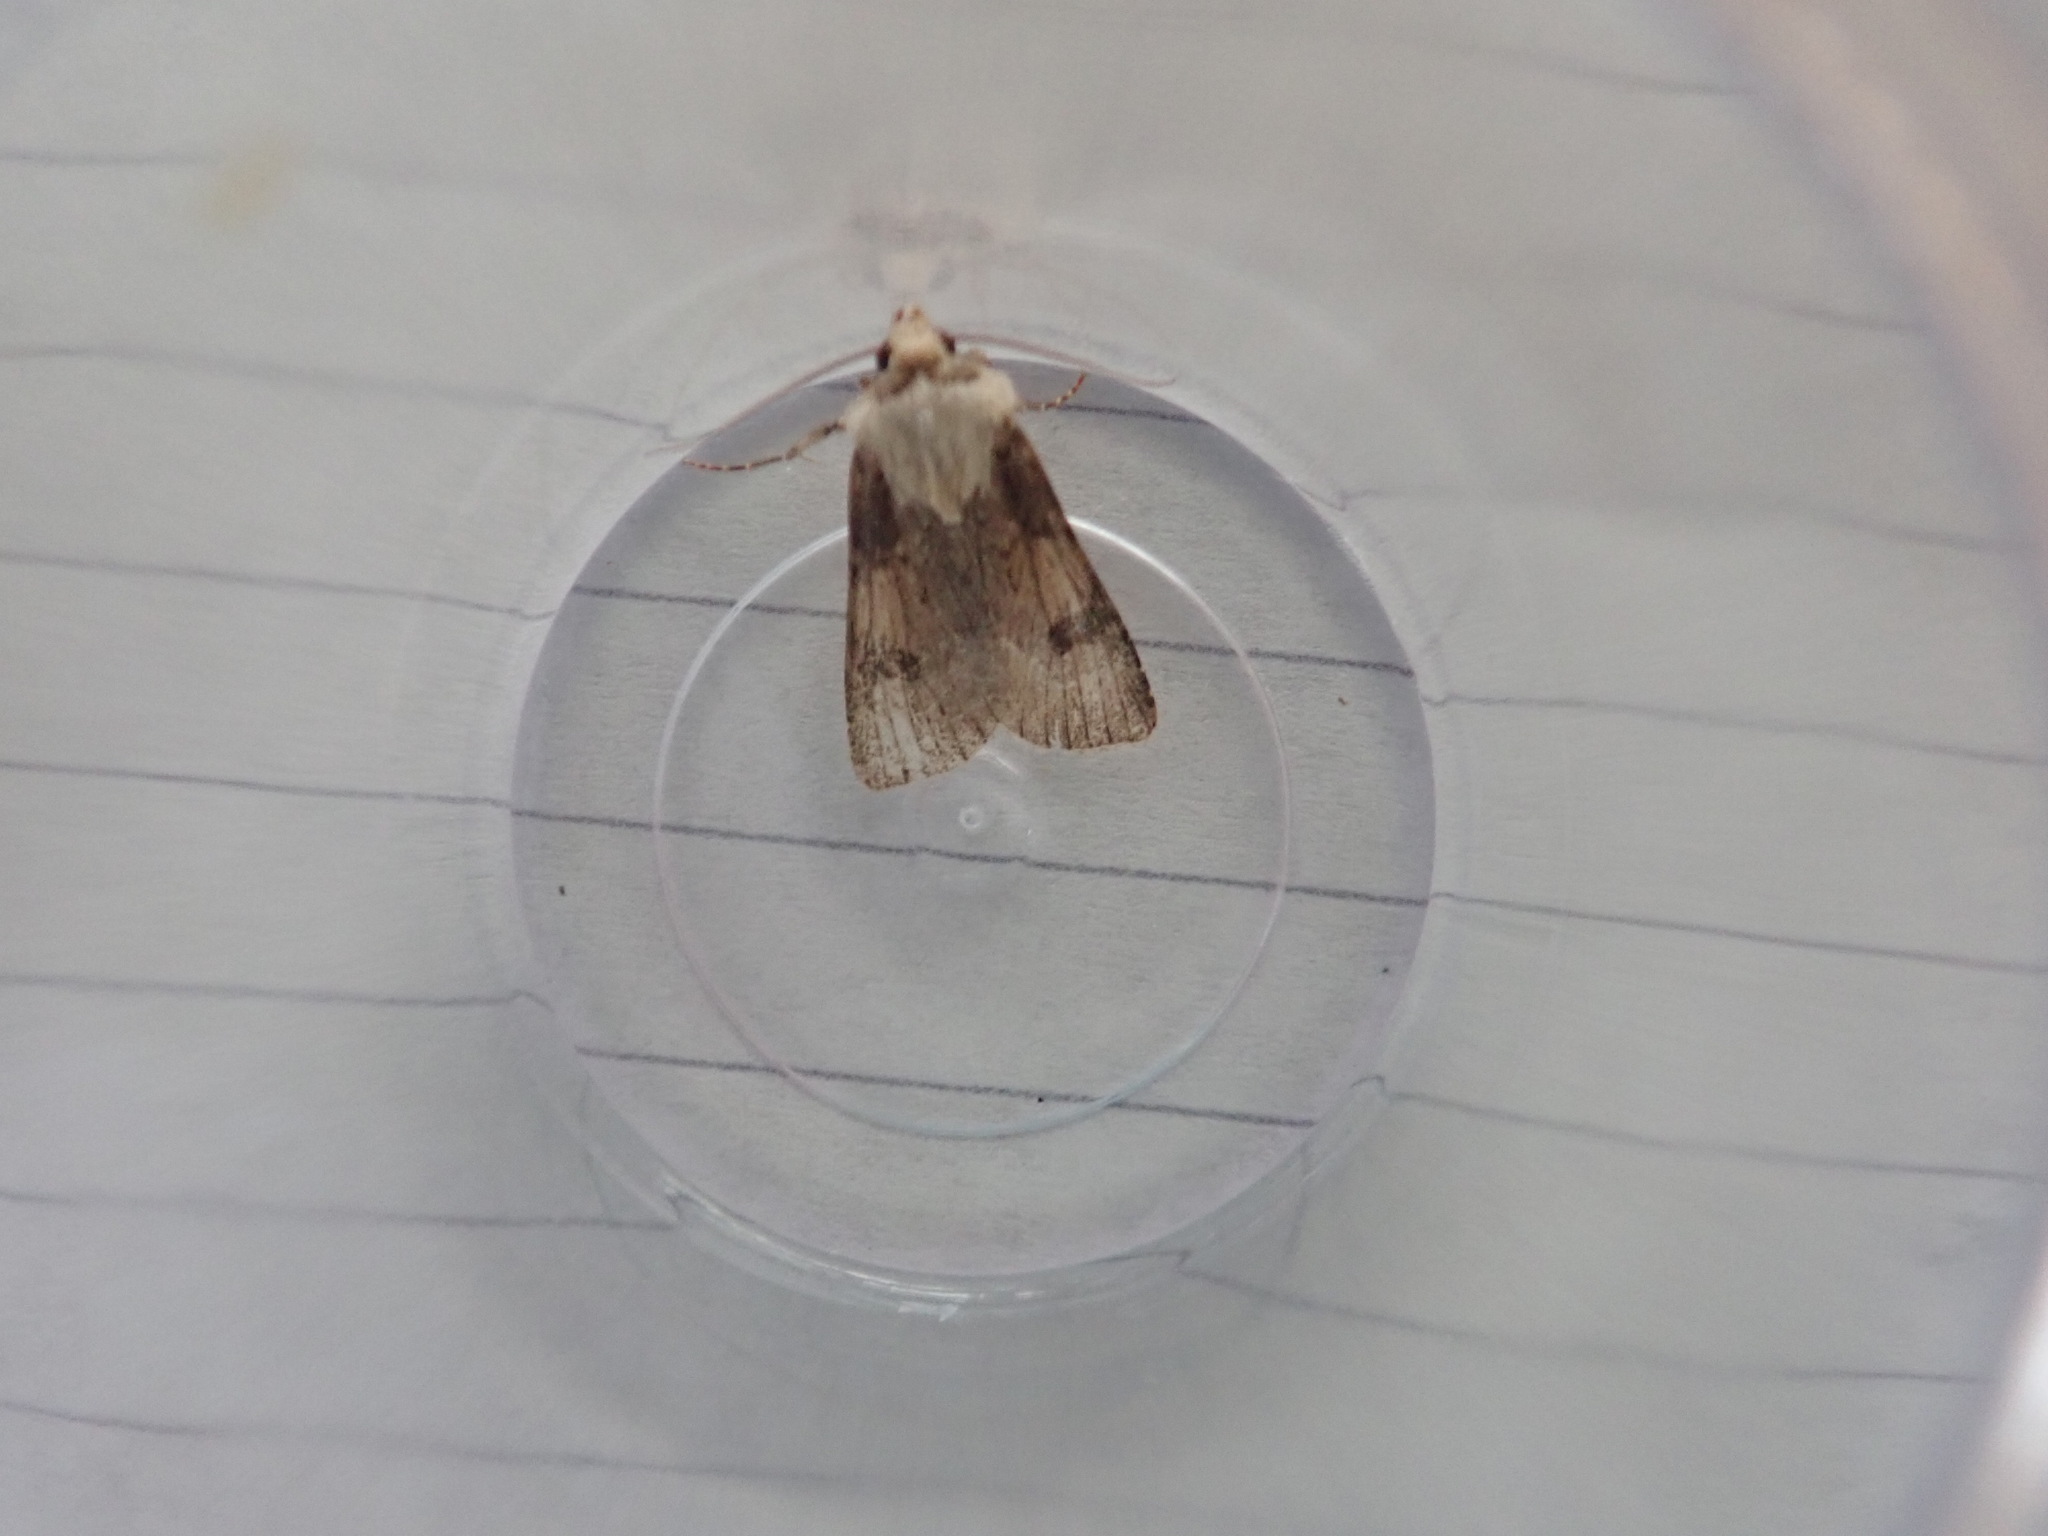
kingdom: Animalia
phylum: Arthropoda
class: Insecta
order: Lepidoptera
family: Noctuidae
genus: Agrotis
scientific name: Agrotis puta
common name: Shuttle-shaped dart
